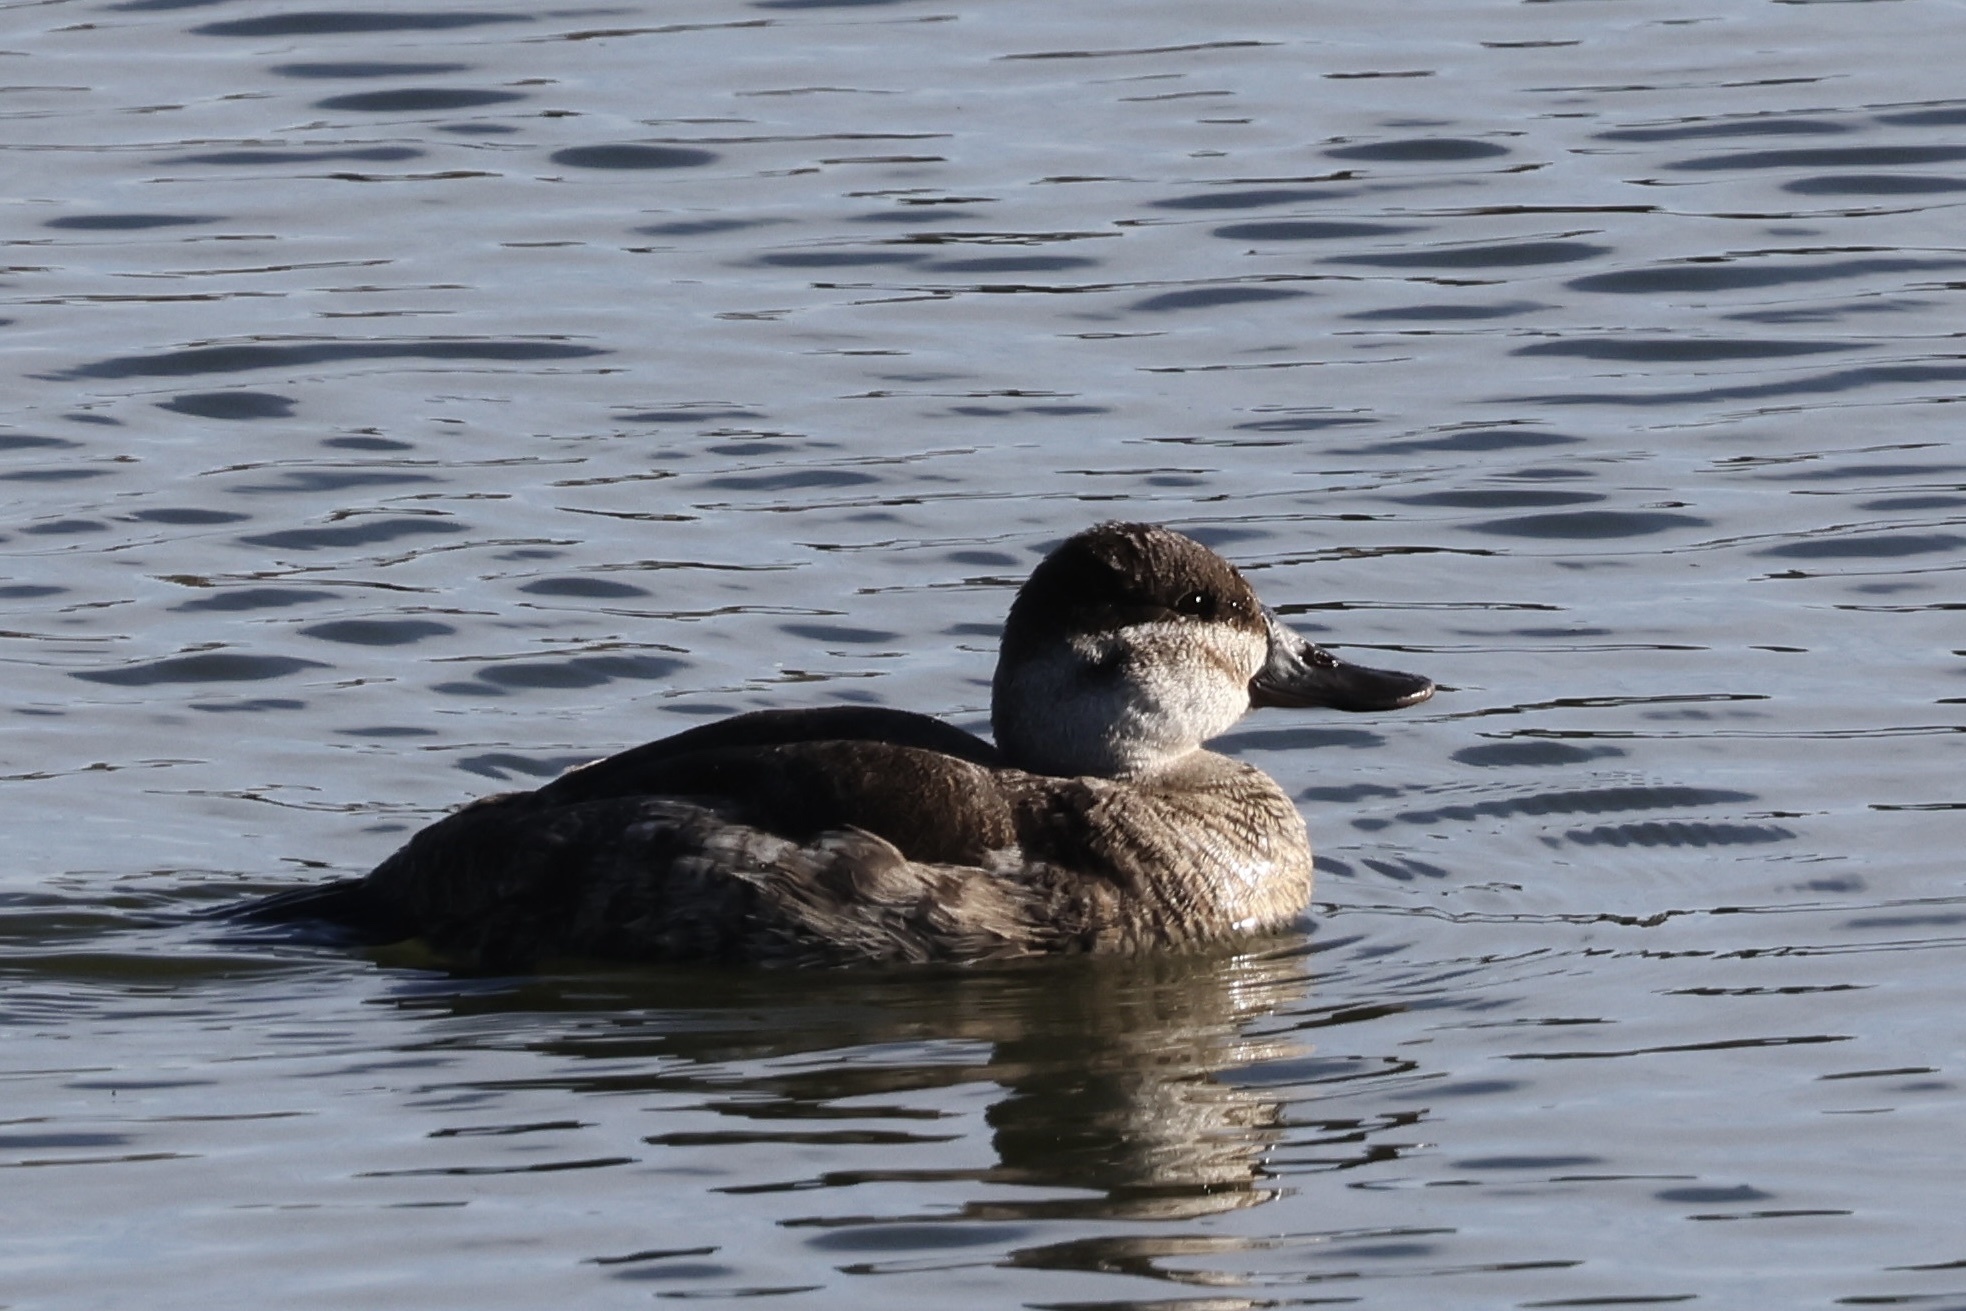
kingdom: Animalia
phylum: Chordata
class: Aves
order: Anseriformes
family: Anatidae
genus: Oxyura
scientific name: Oxyura jamaicensis
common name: Ruddy duck
